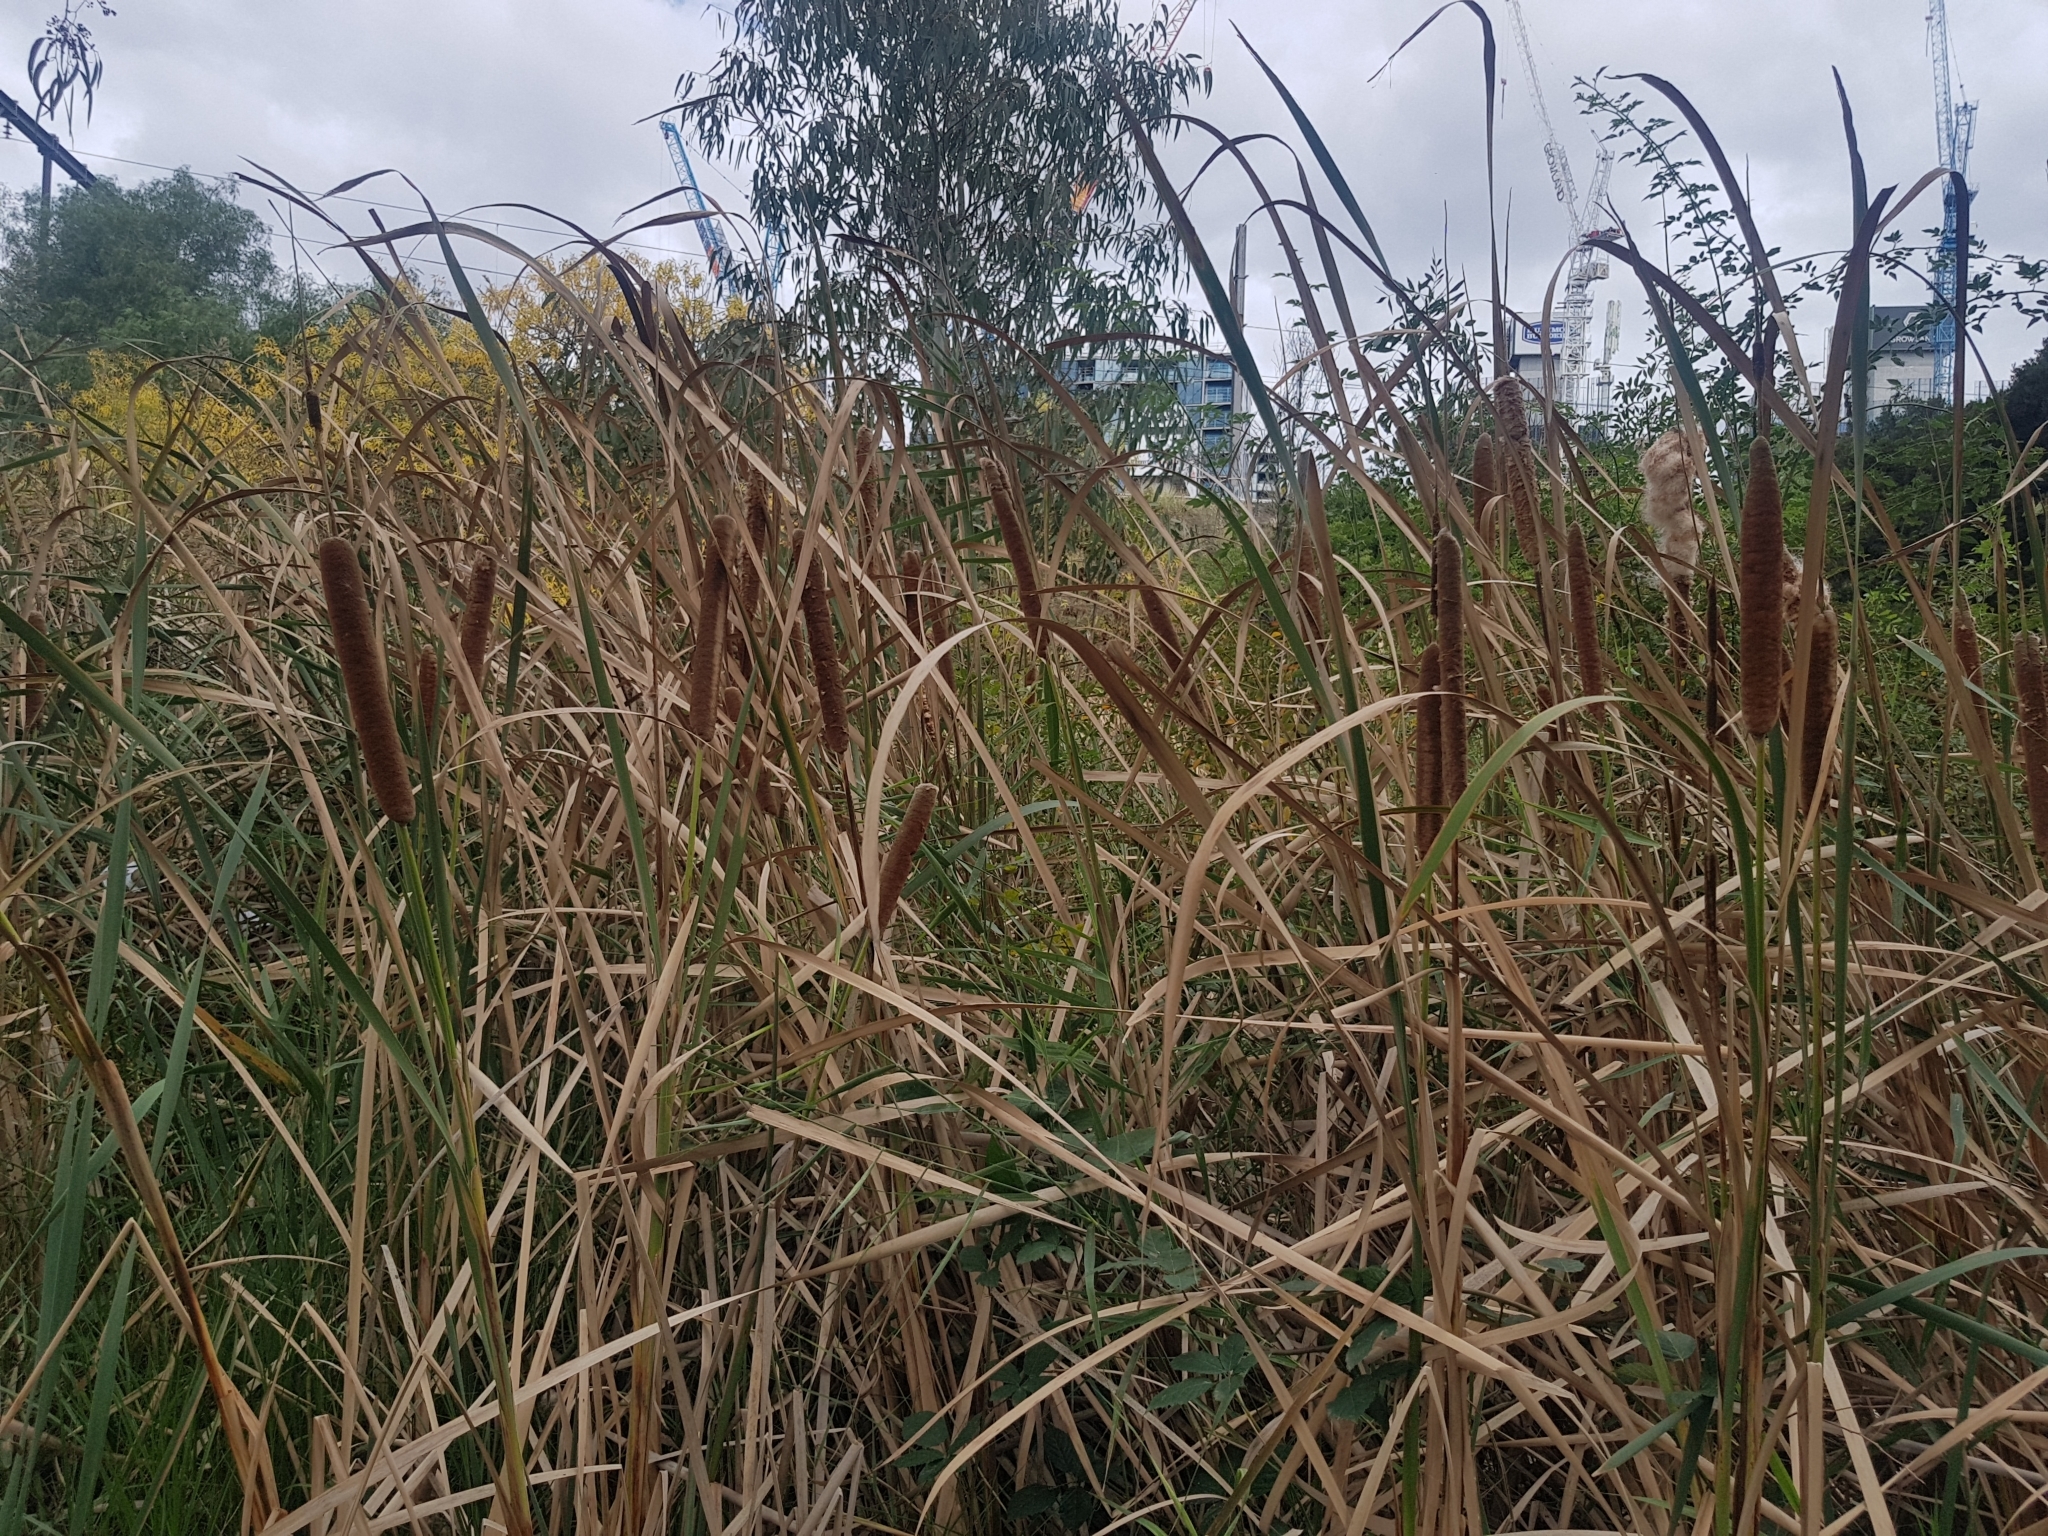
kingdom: Plantae
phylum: Tracheophyta
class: Liliopsida
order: Poales
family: Typhaceae
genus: Typha
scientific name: Typha orientalis
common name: Bullrush
